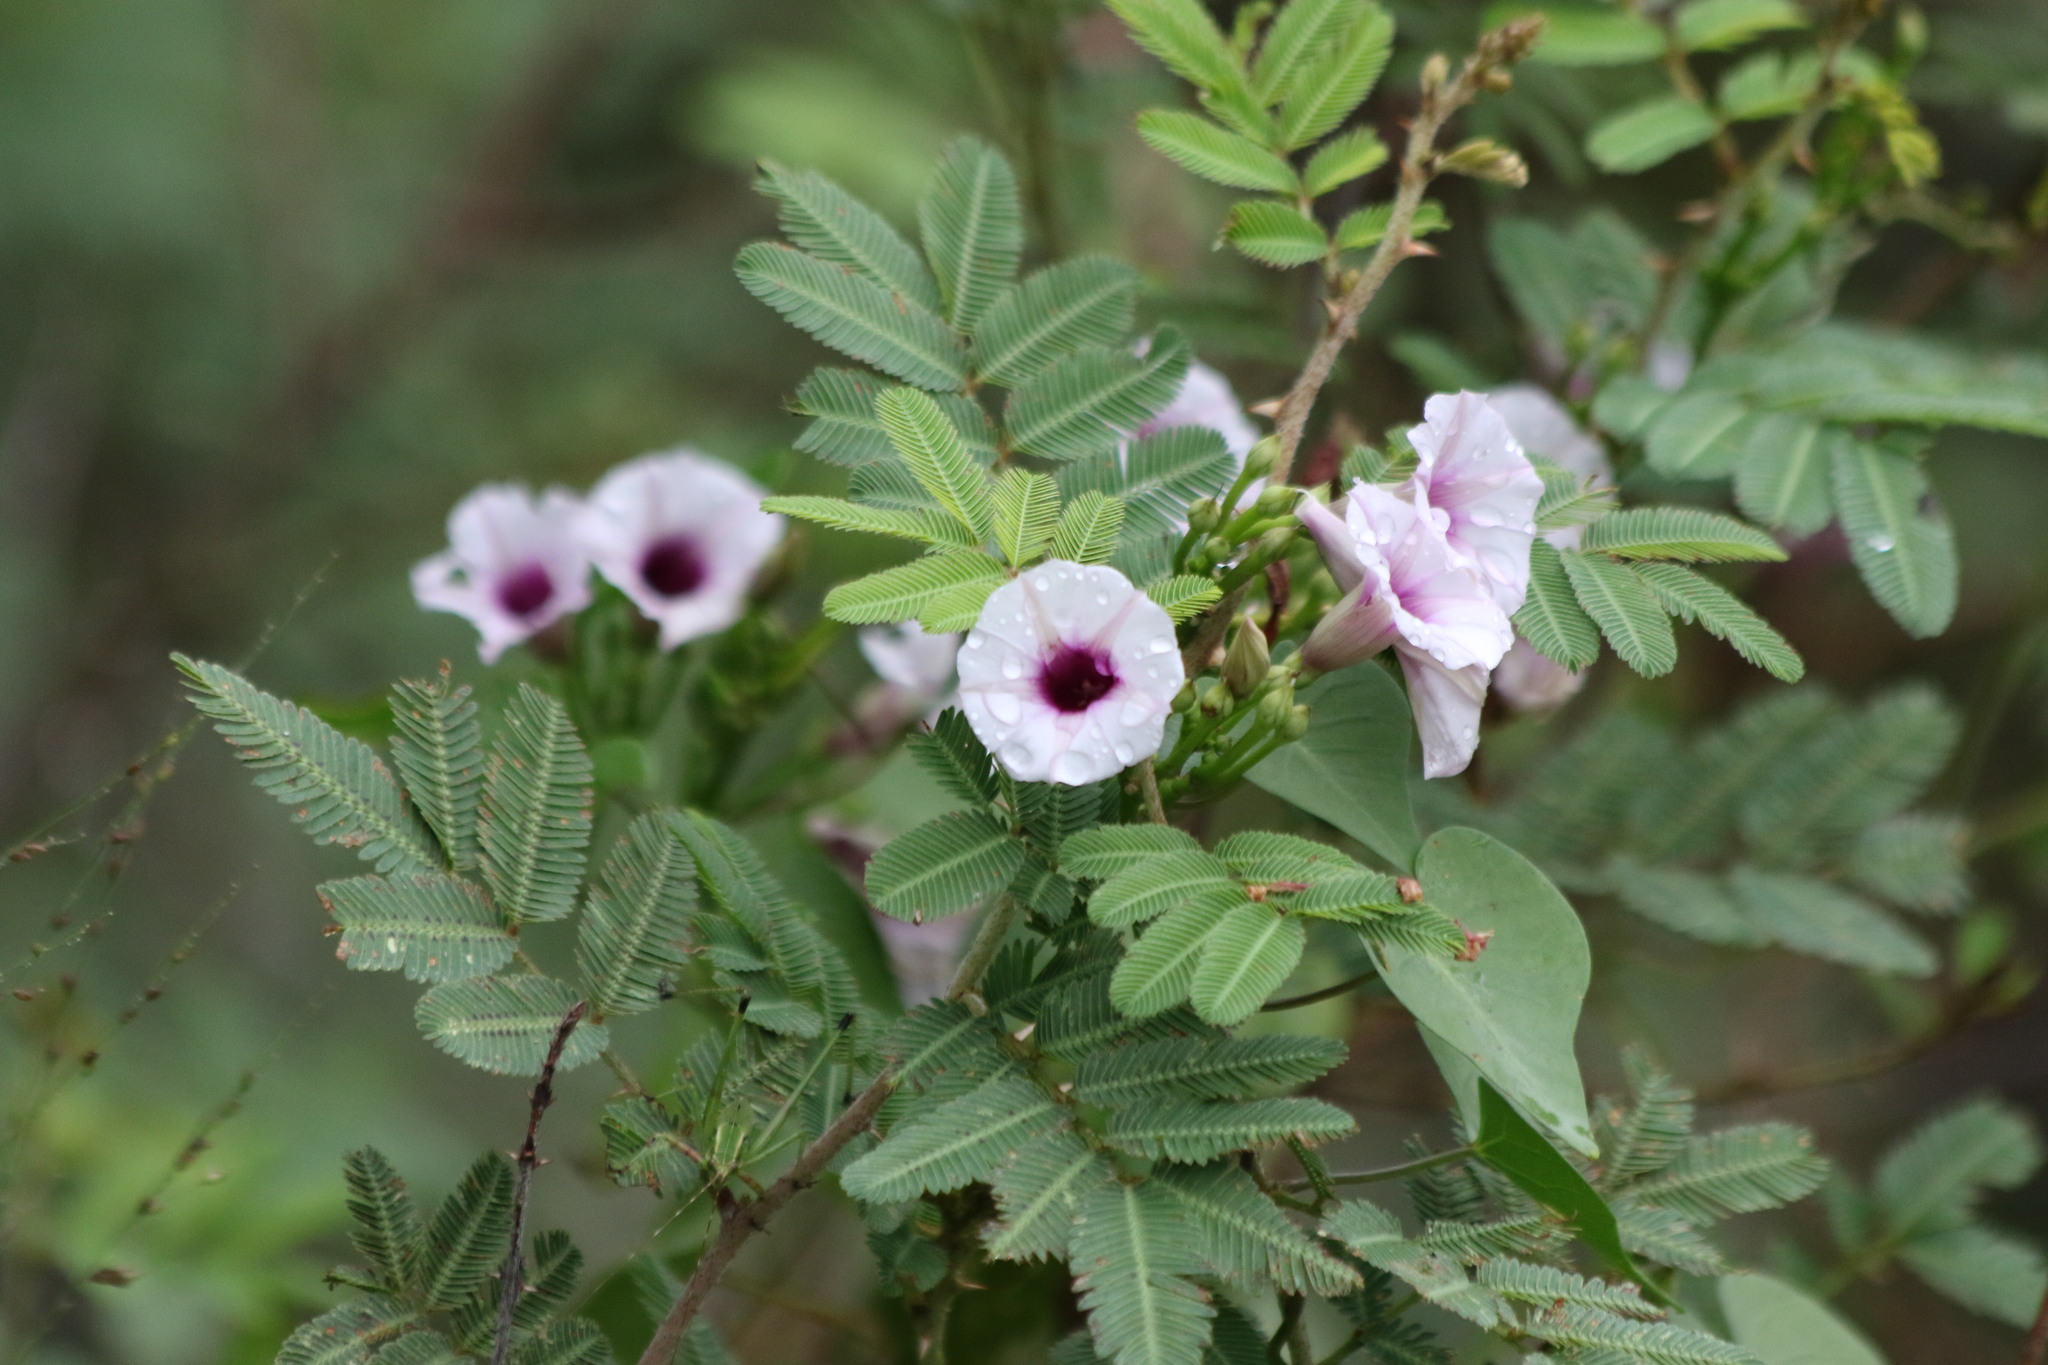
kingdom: Plantae
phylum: Tracheophyta
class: Magnoliopsida
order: Solanales
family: Convolvulaceae
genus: Ipomoea
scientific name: Ipomoea amnicola
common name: Redcenter morning-glory
